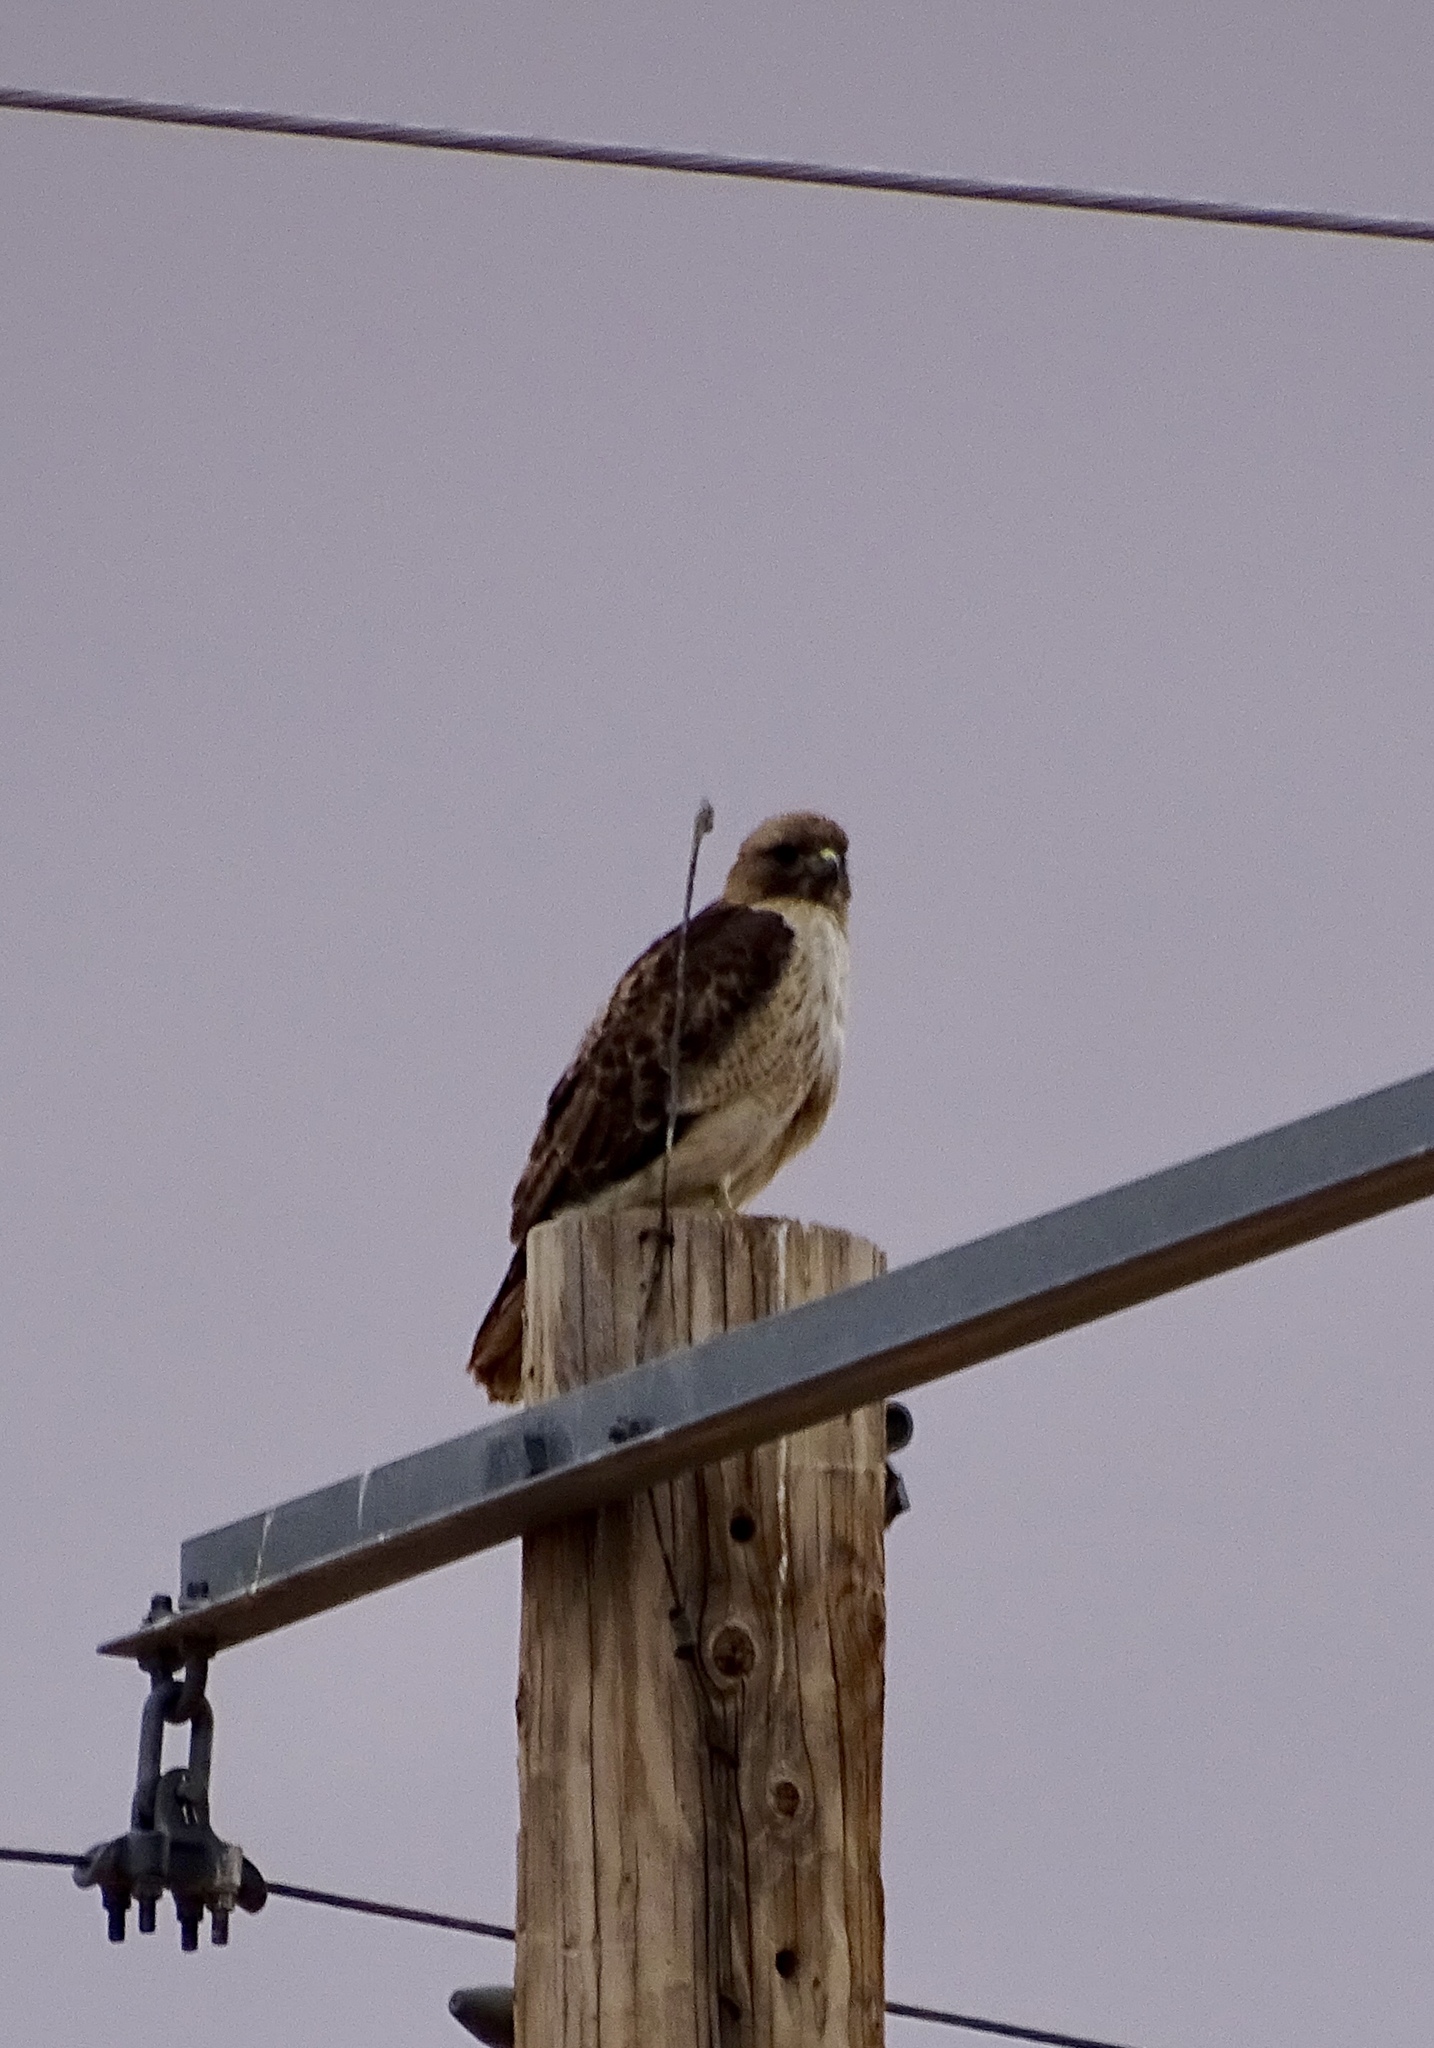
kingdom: Animalia
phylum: Chordata
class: Aves
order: Accipitriformes
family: Accipitridae
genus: Buteo
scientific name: Buteo jamaicensis
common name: Red-tailed hawk
